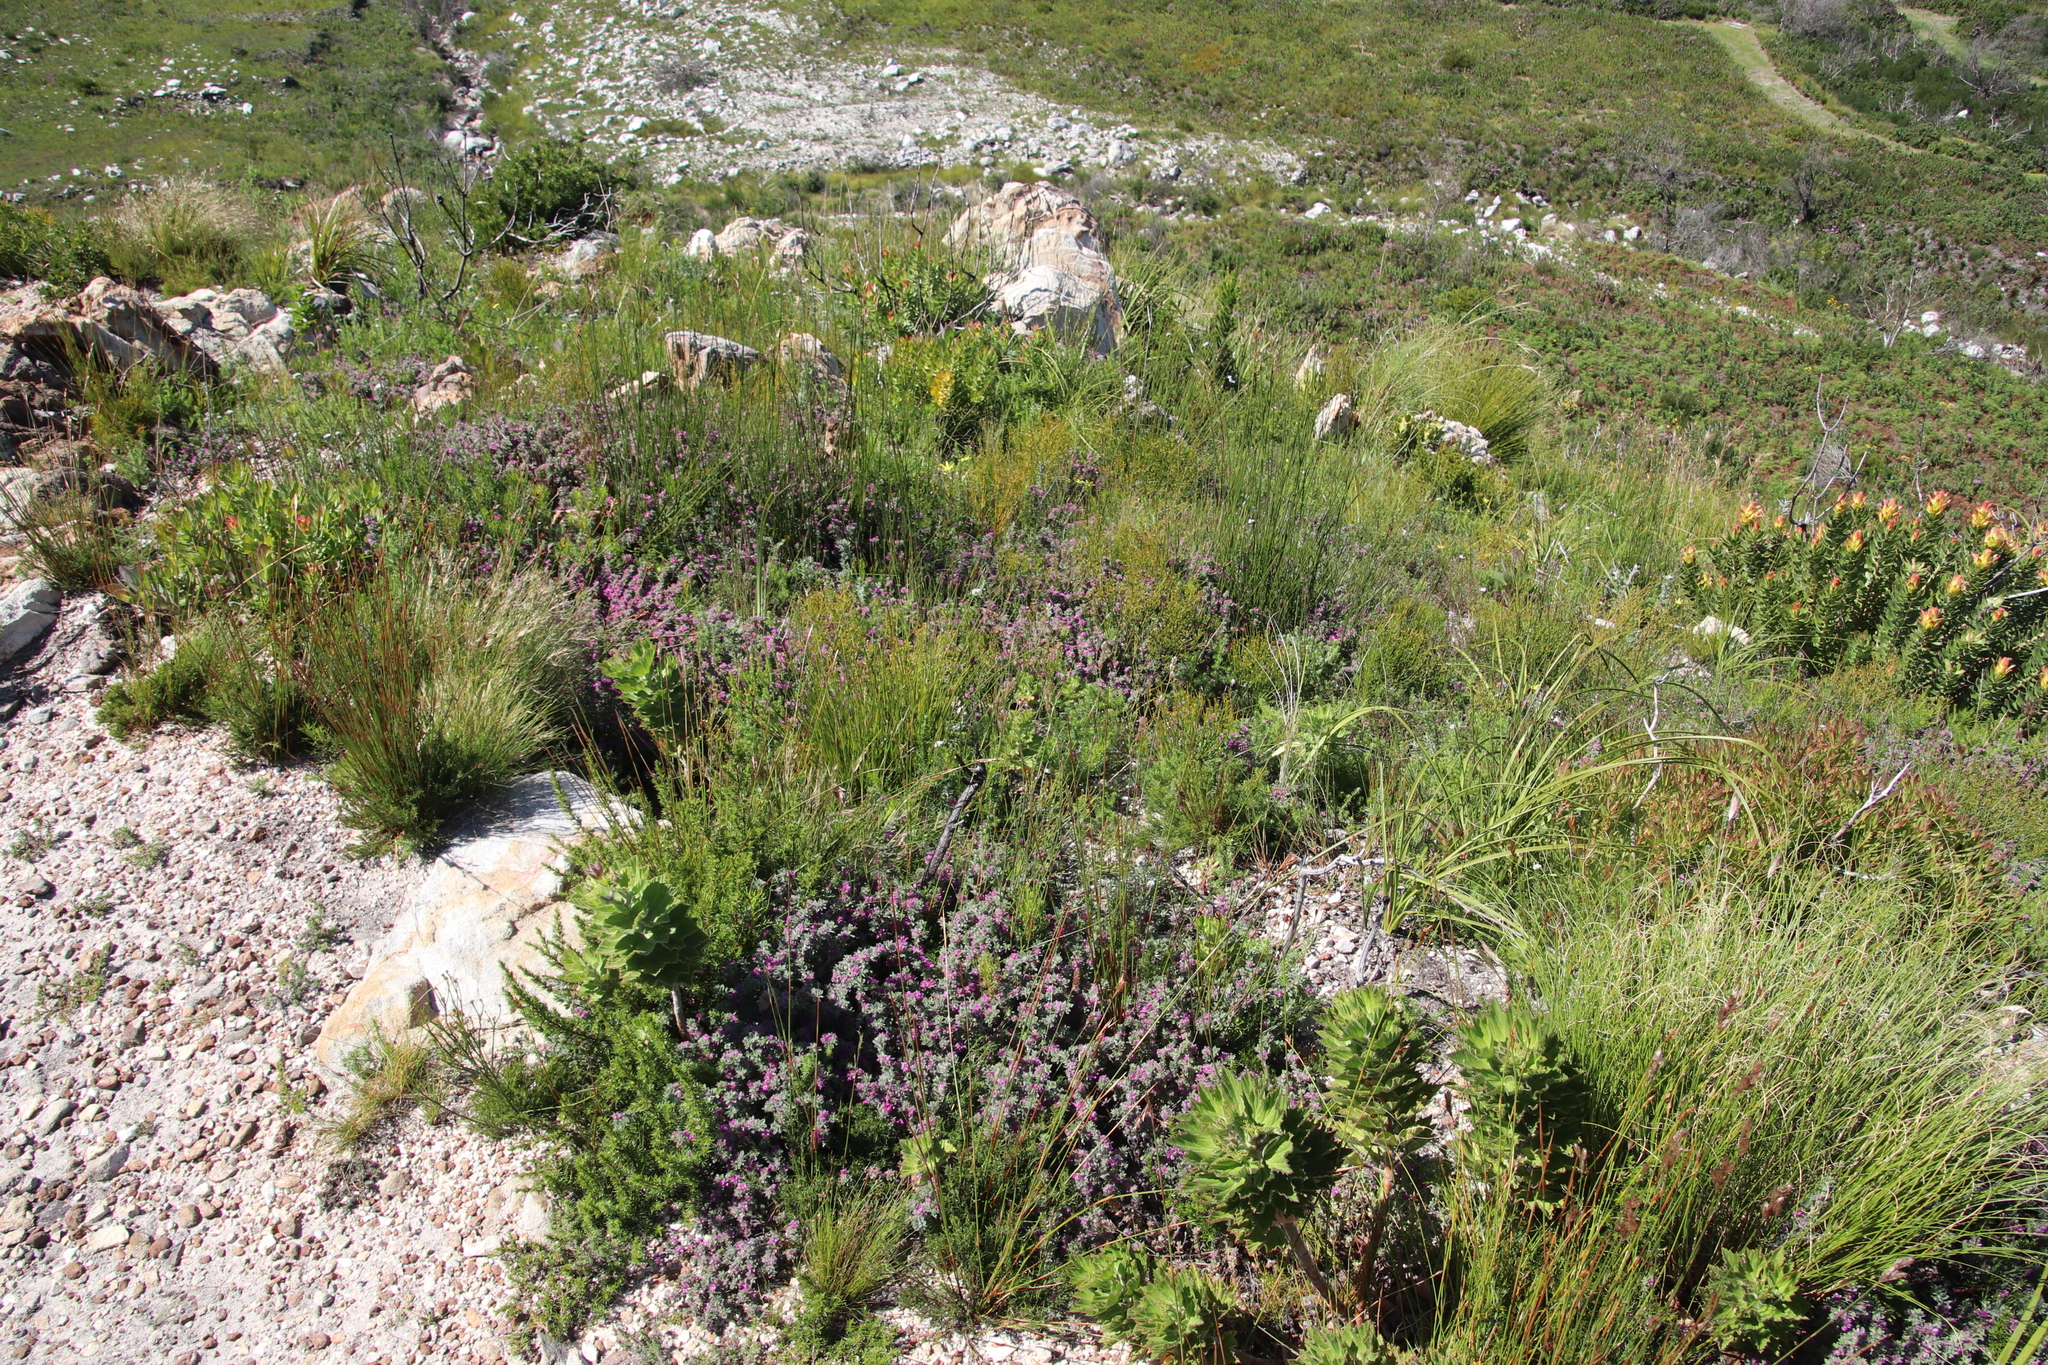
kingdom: Plantae
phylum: Tracheophyta
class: Magnoliopsida
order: Fabales
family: Fabaceae
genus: Indigofera
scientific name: Indigofera glomerata
